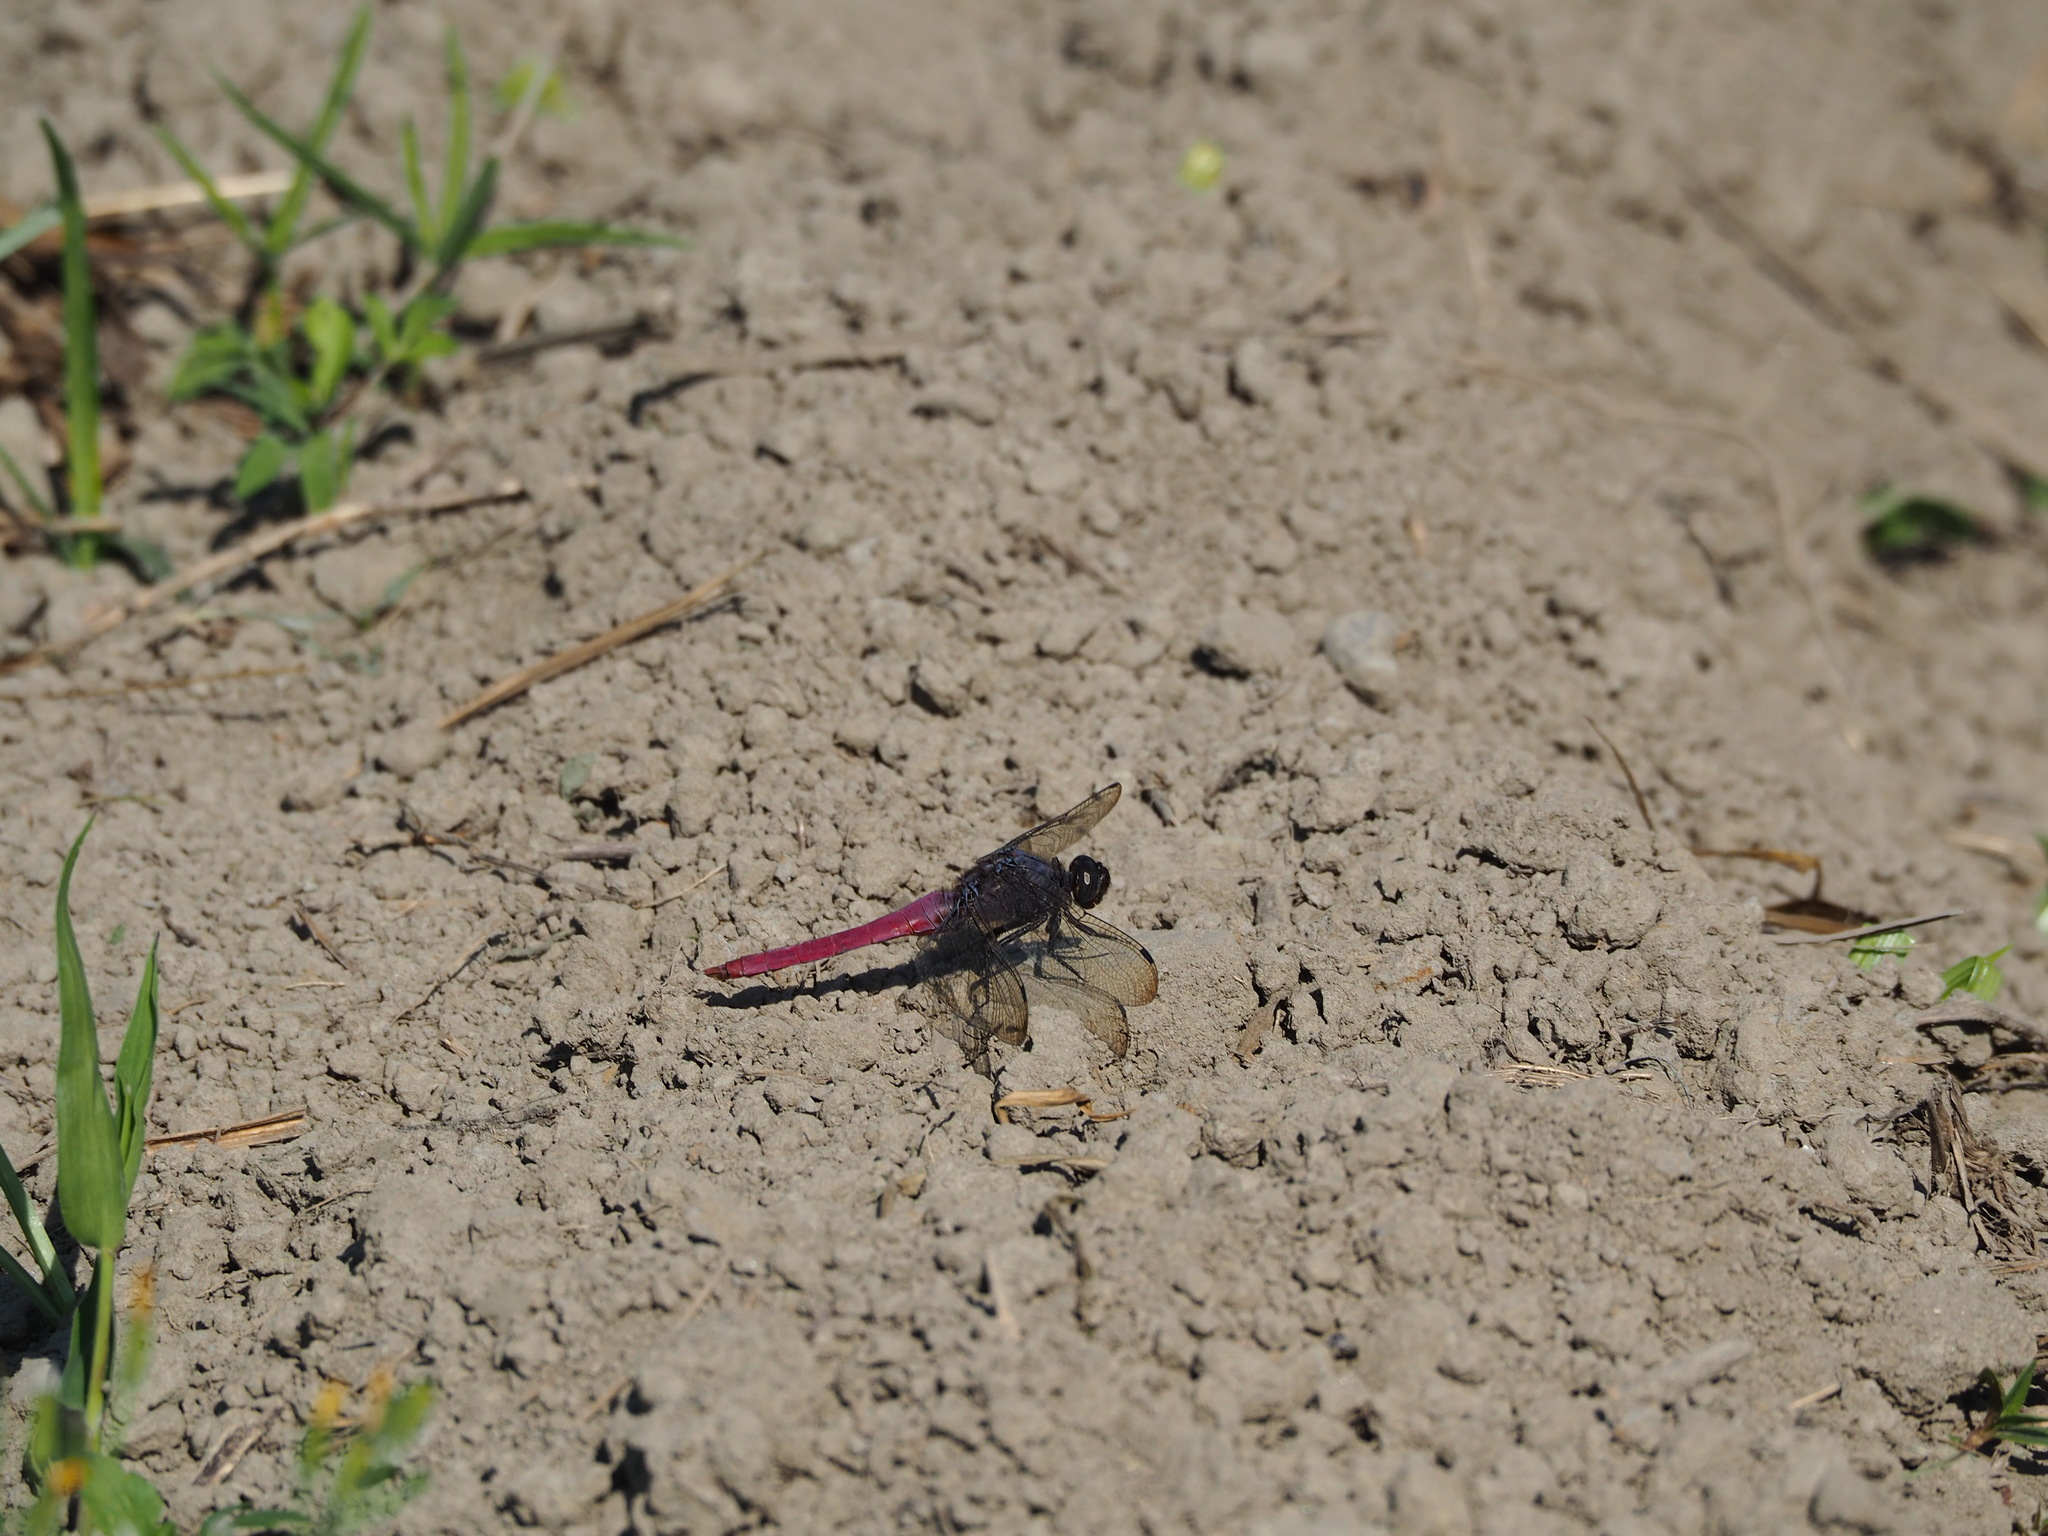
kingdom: Animalia
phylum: Arthropoda
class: Insecta
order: Odonata
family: Libellulidae
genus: Orthetrum
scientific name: Orthetrum pruinosum
